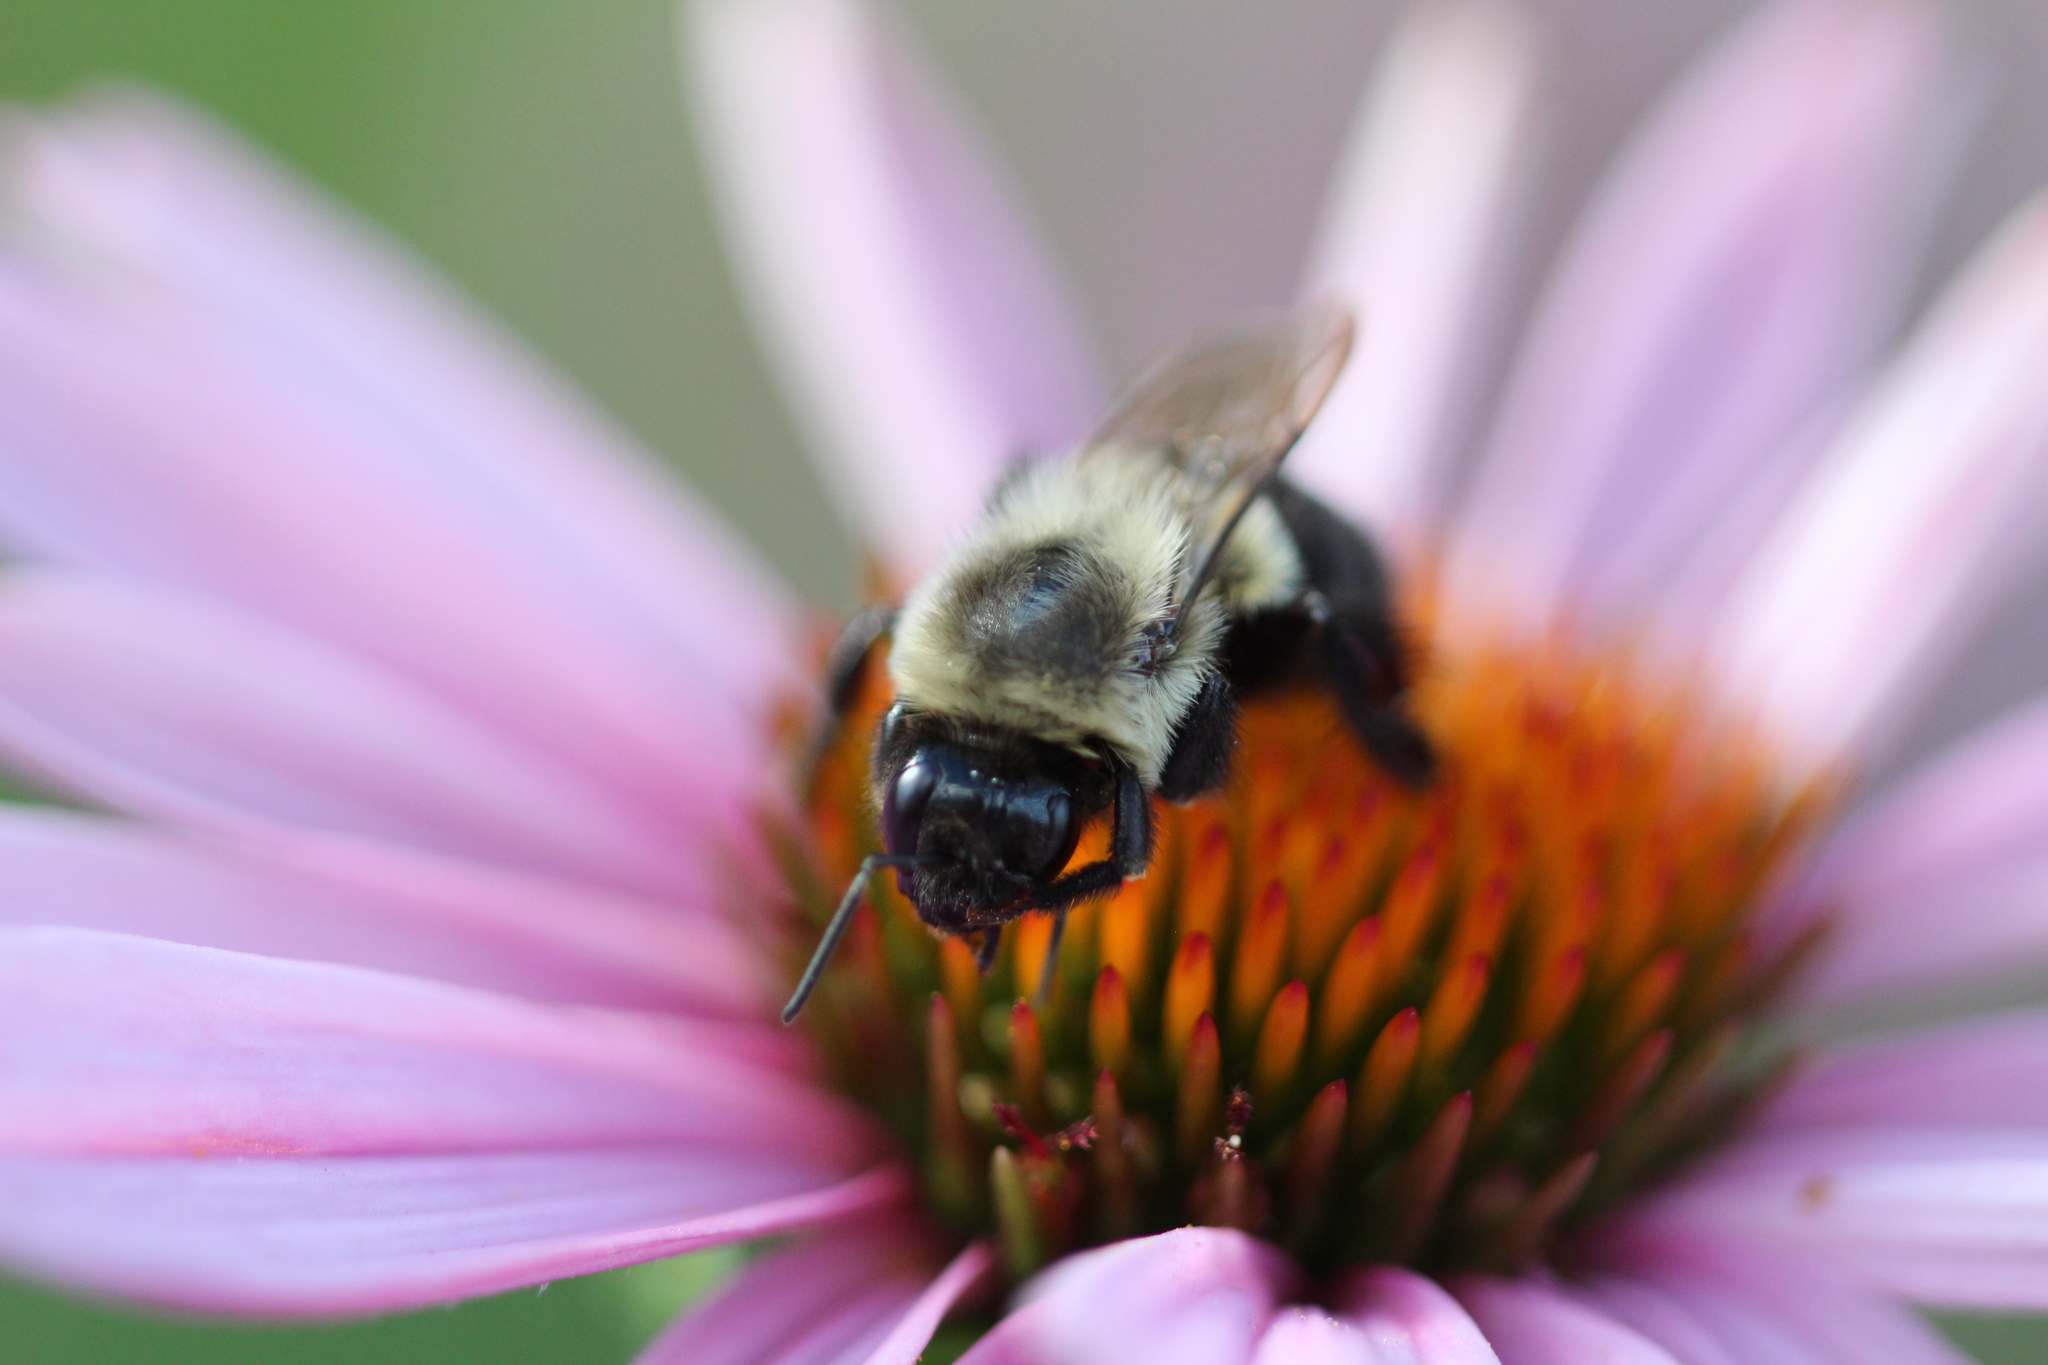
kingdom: Animalia
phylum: Arthropoda
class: Insecta
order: Hymenoptera
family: Apidae
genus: Bombus
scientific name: Bombus impatiens
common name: Common eastern bumble bee
